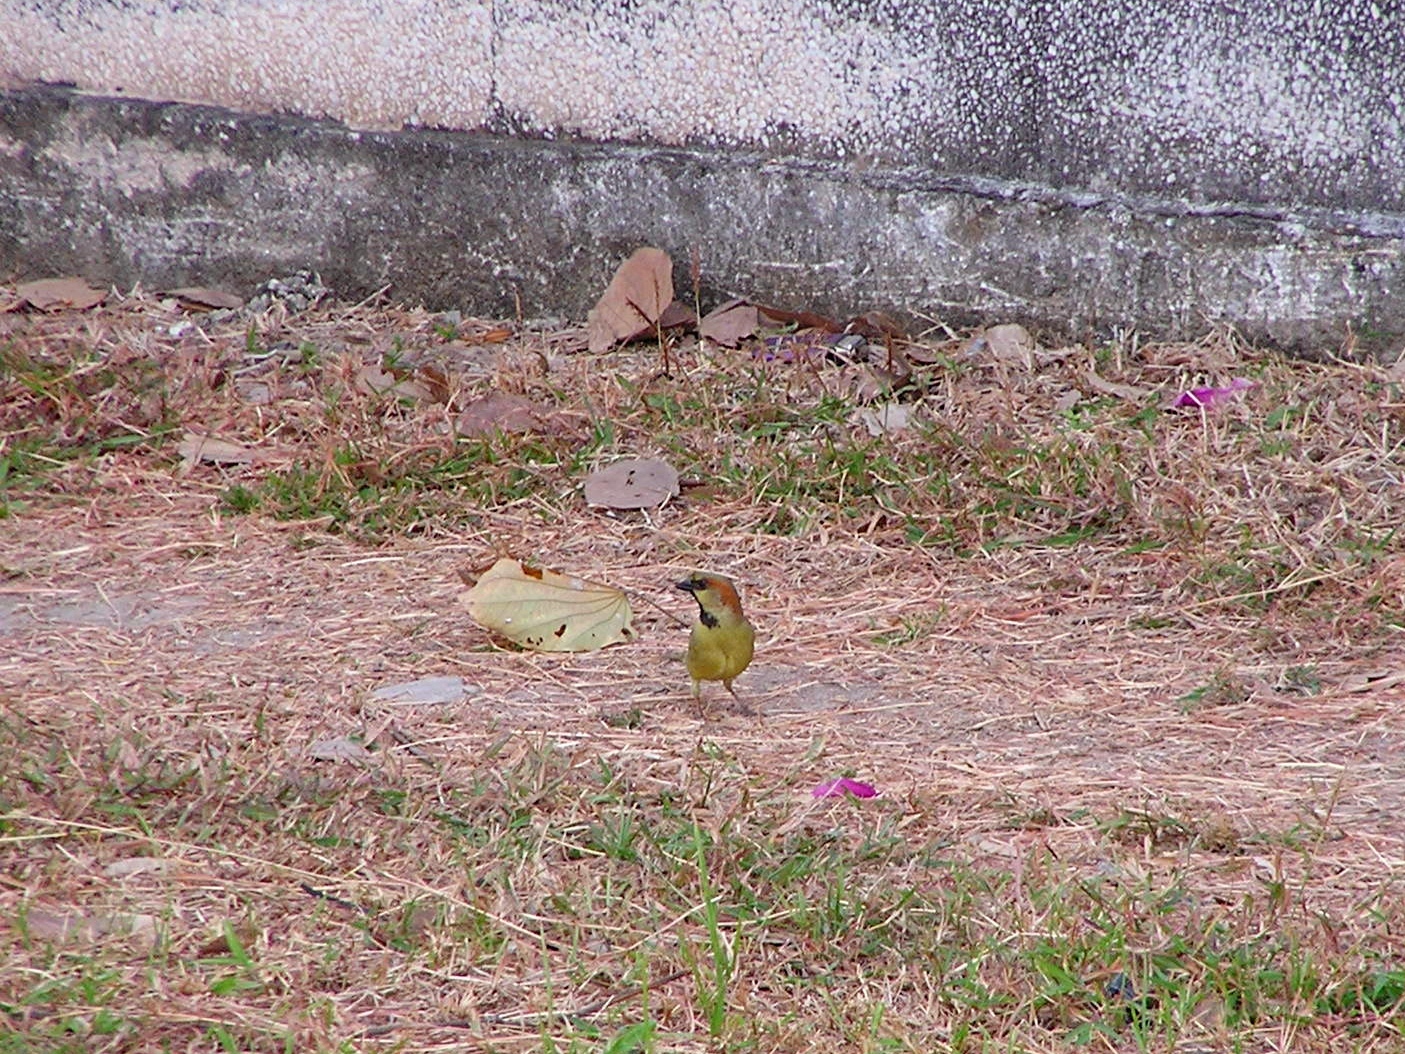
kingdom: Animalia
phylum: Chordata
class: Aves
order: Passeriformes
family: Passeridae
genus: Passer
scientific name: Passer flaveolus
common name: Plain-backed sparrow
